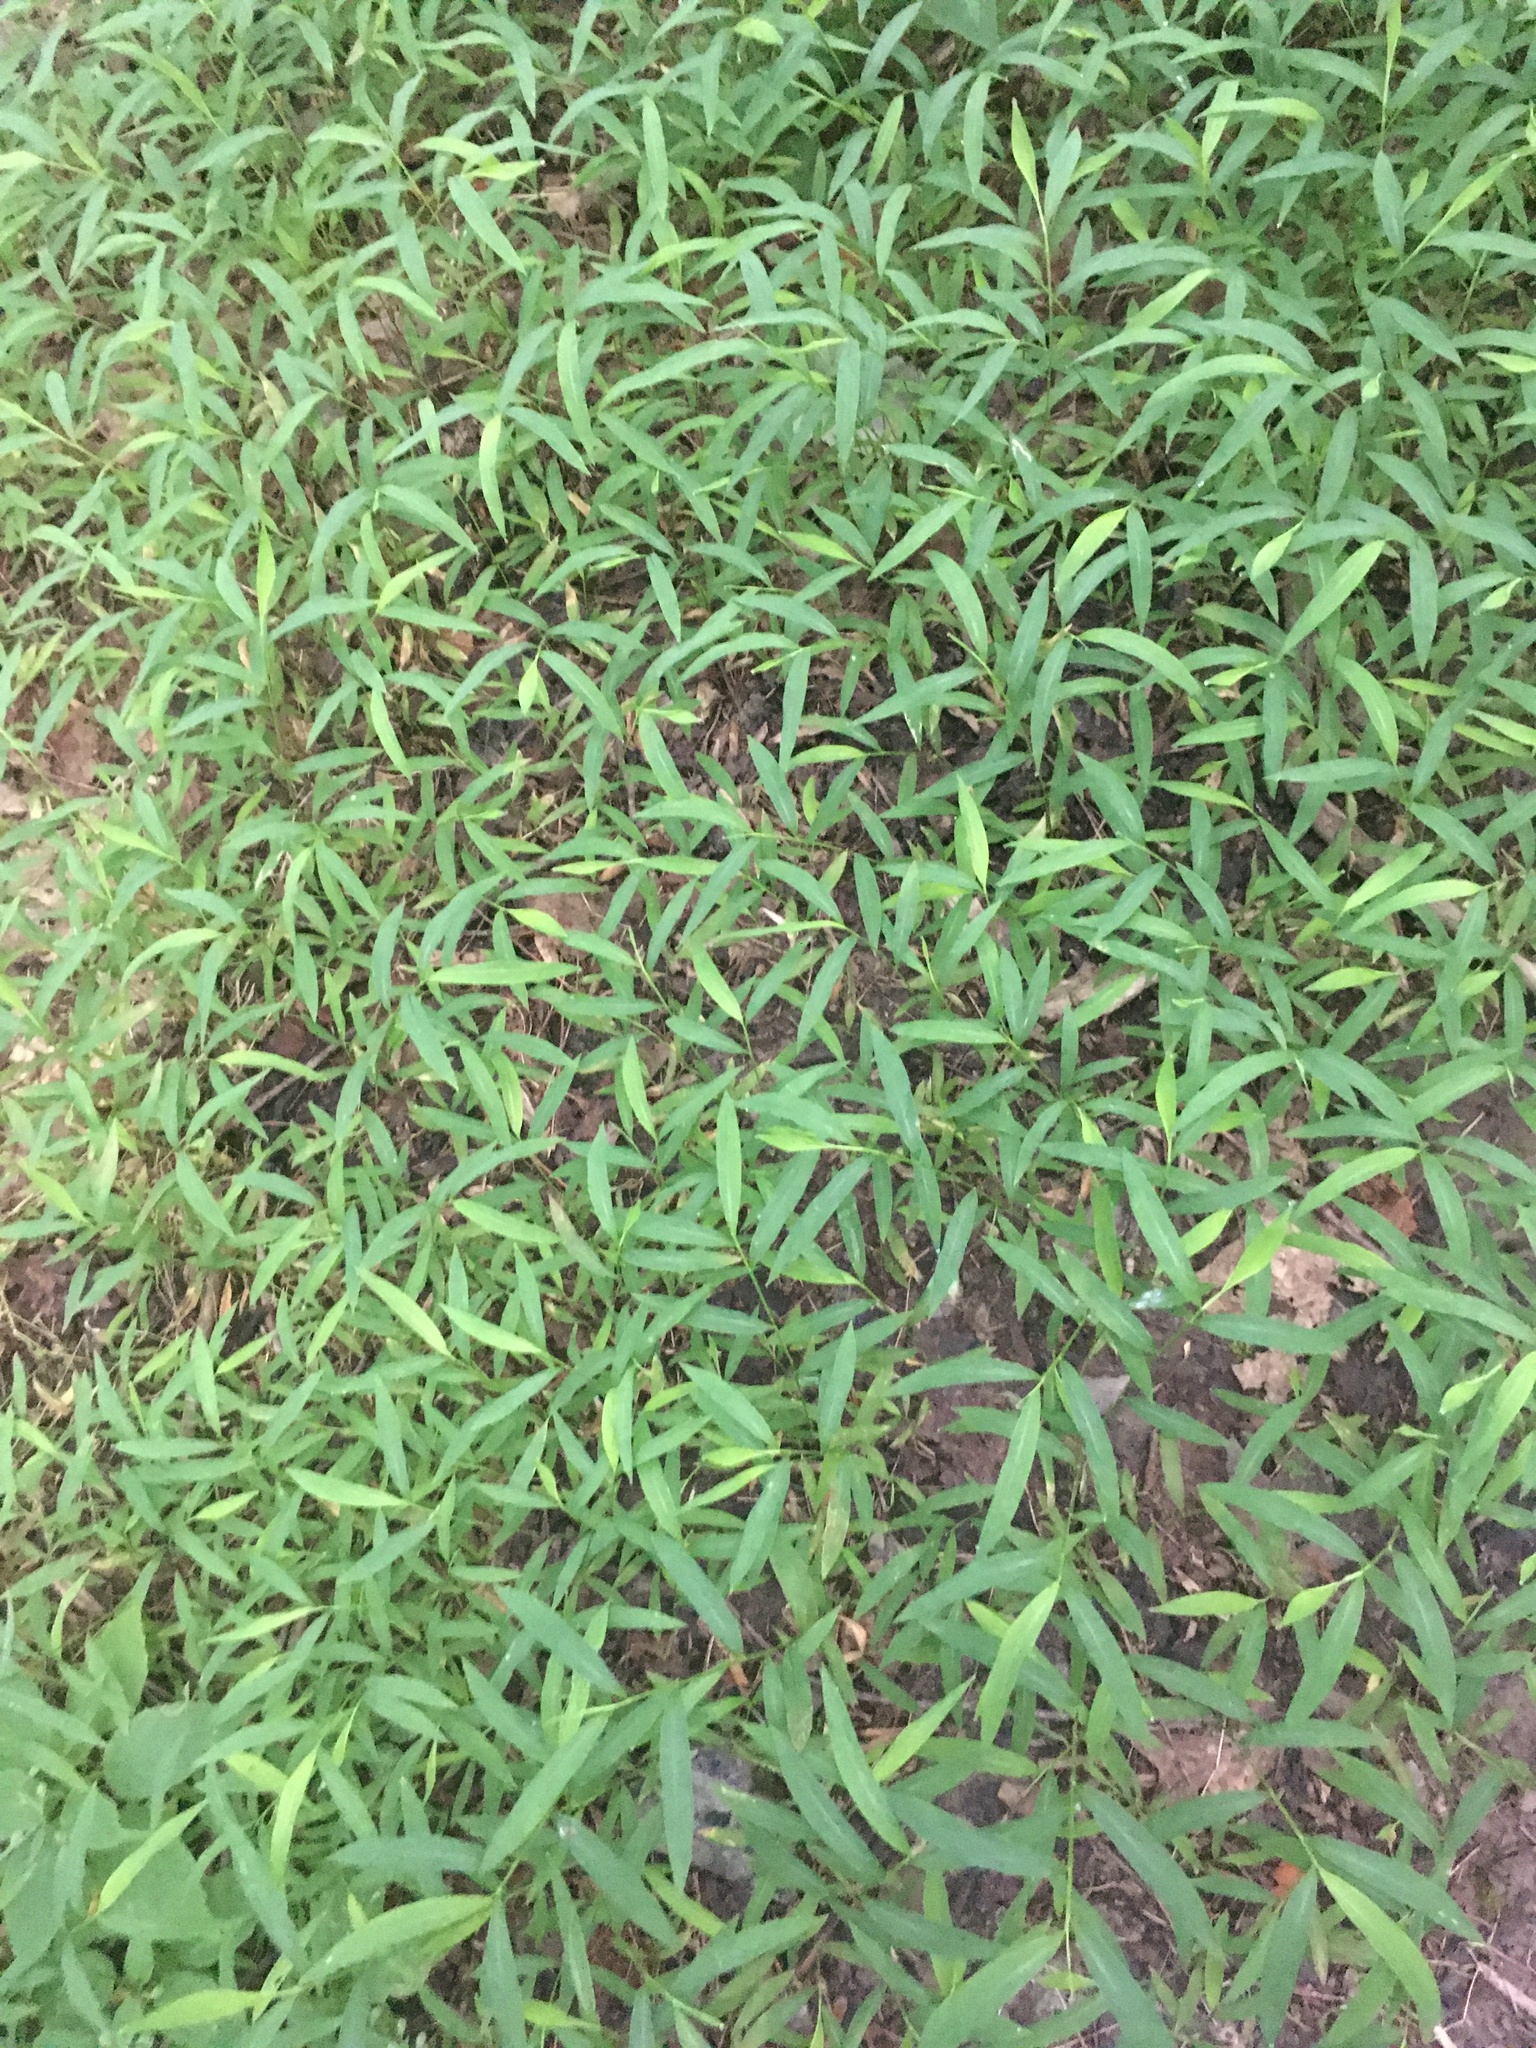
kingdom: Plantae
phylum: Tracheophyta
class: Liliopsida
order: Poales
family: Poaceae
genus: Microstegium
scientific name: Microstegium vimineum
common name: Japanese stiltgrass
